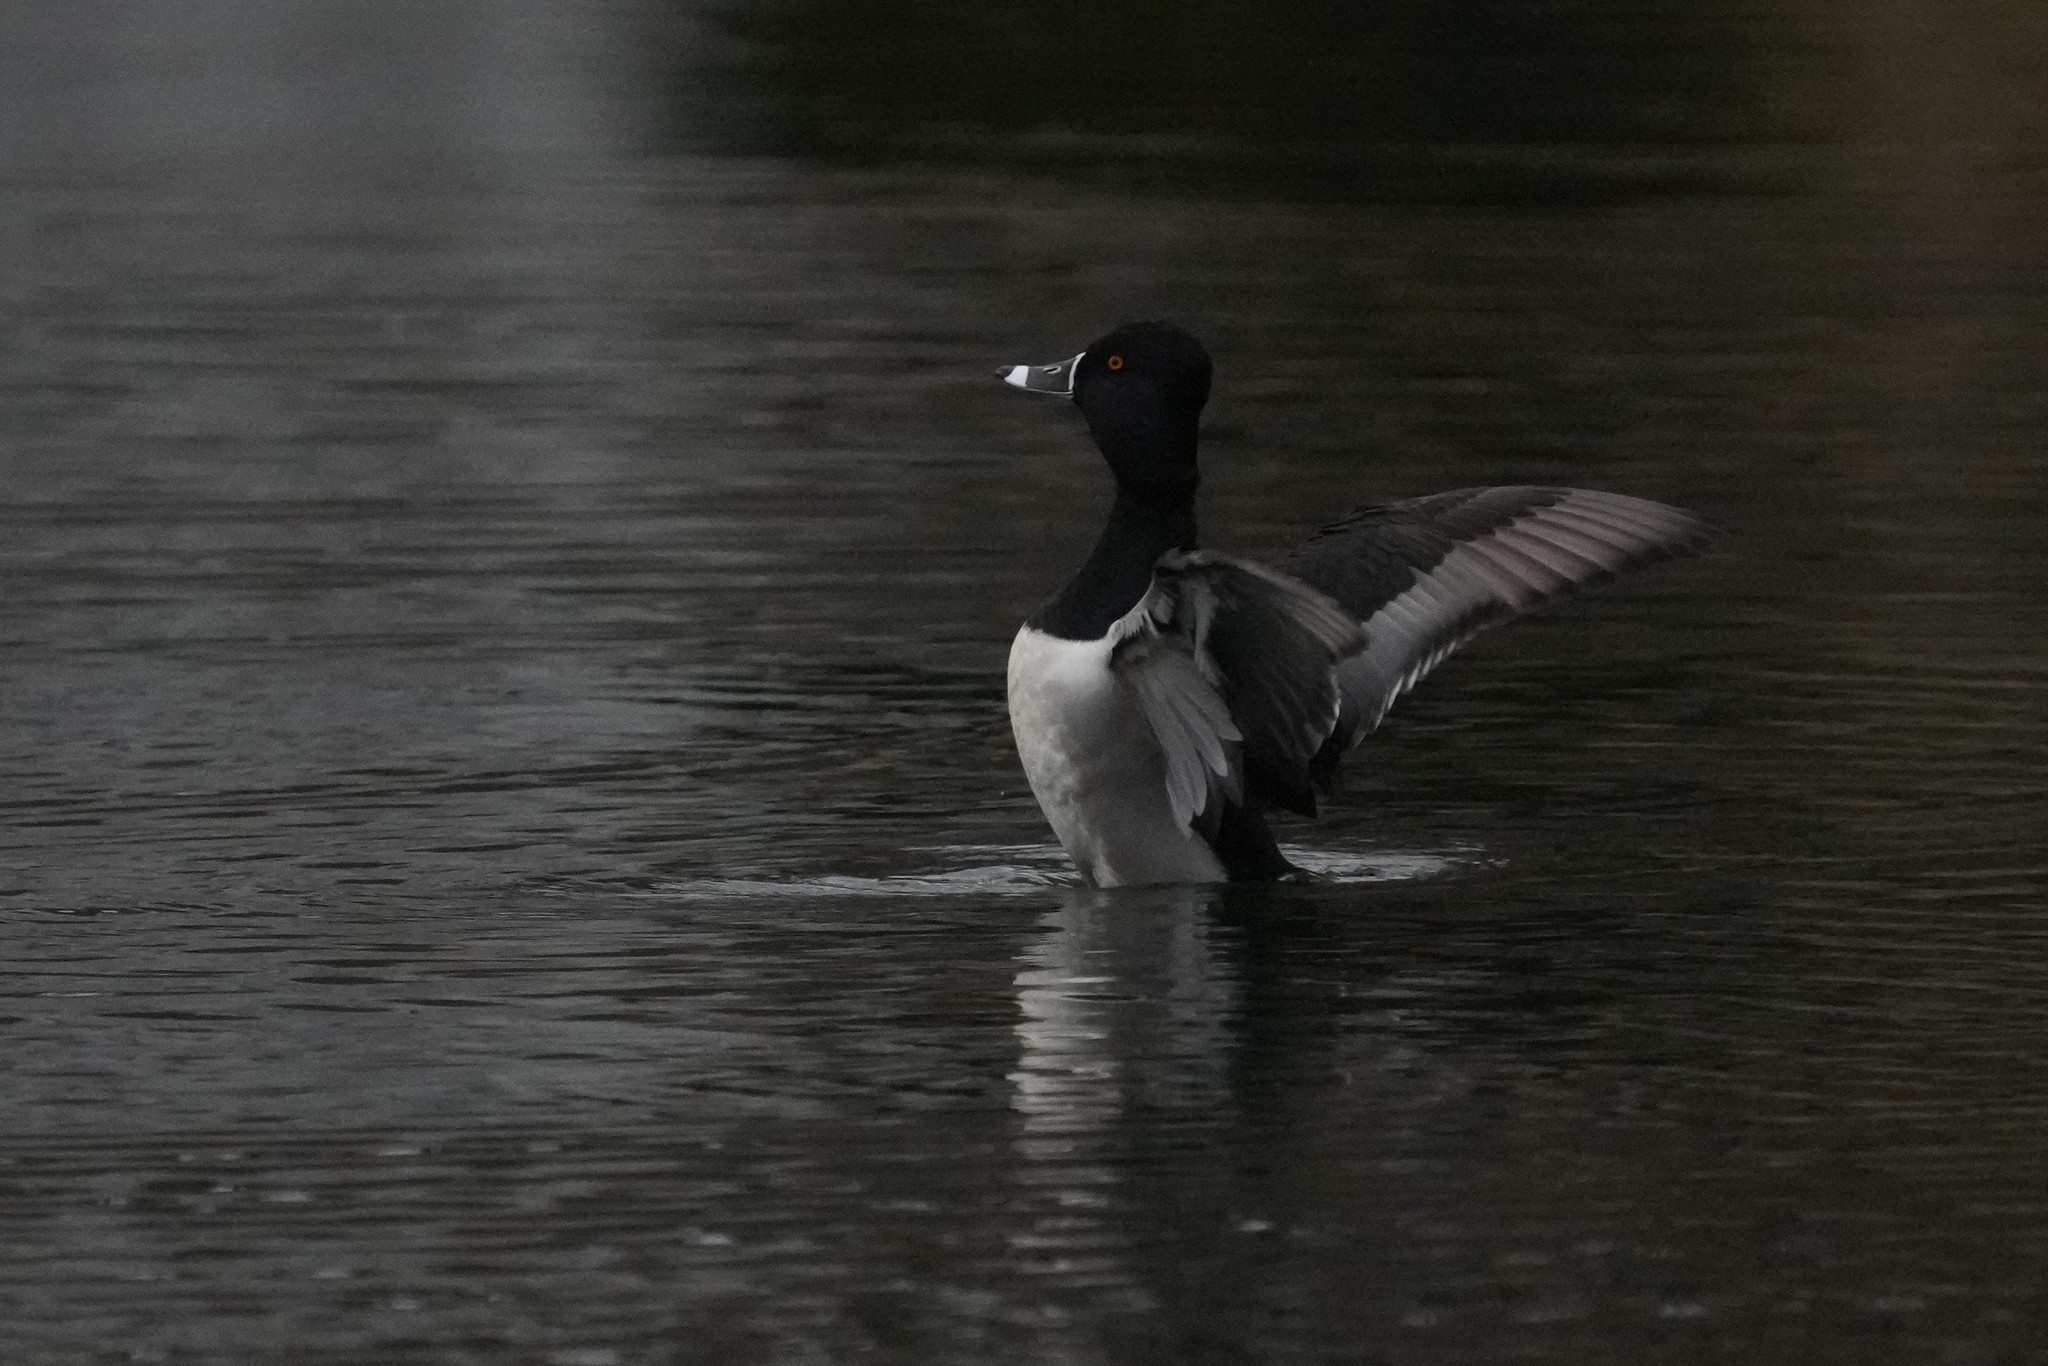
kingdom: Animalia
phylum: Chordata
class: Aves
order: Anseriformes
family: Anatidae
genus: Aythya
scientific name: Aythya collaris
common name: Ring-necked duck
